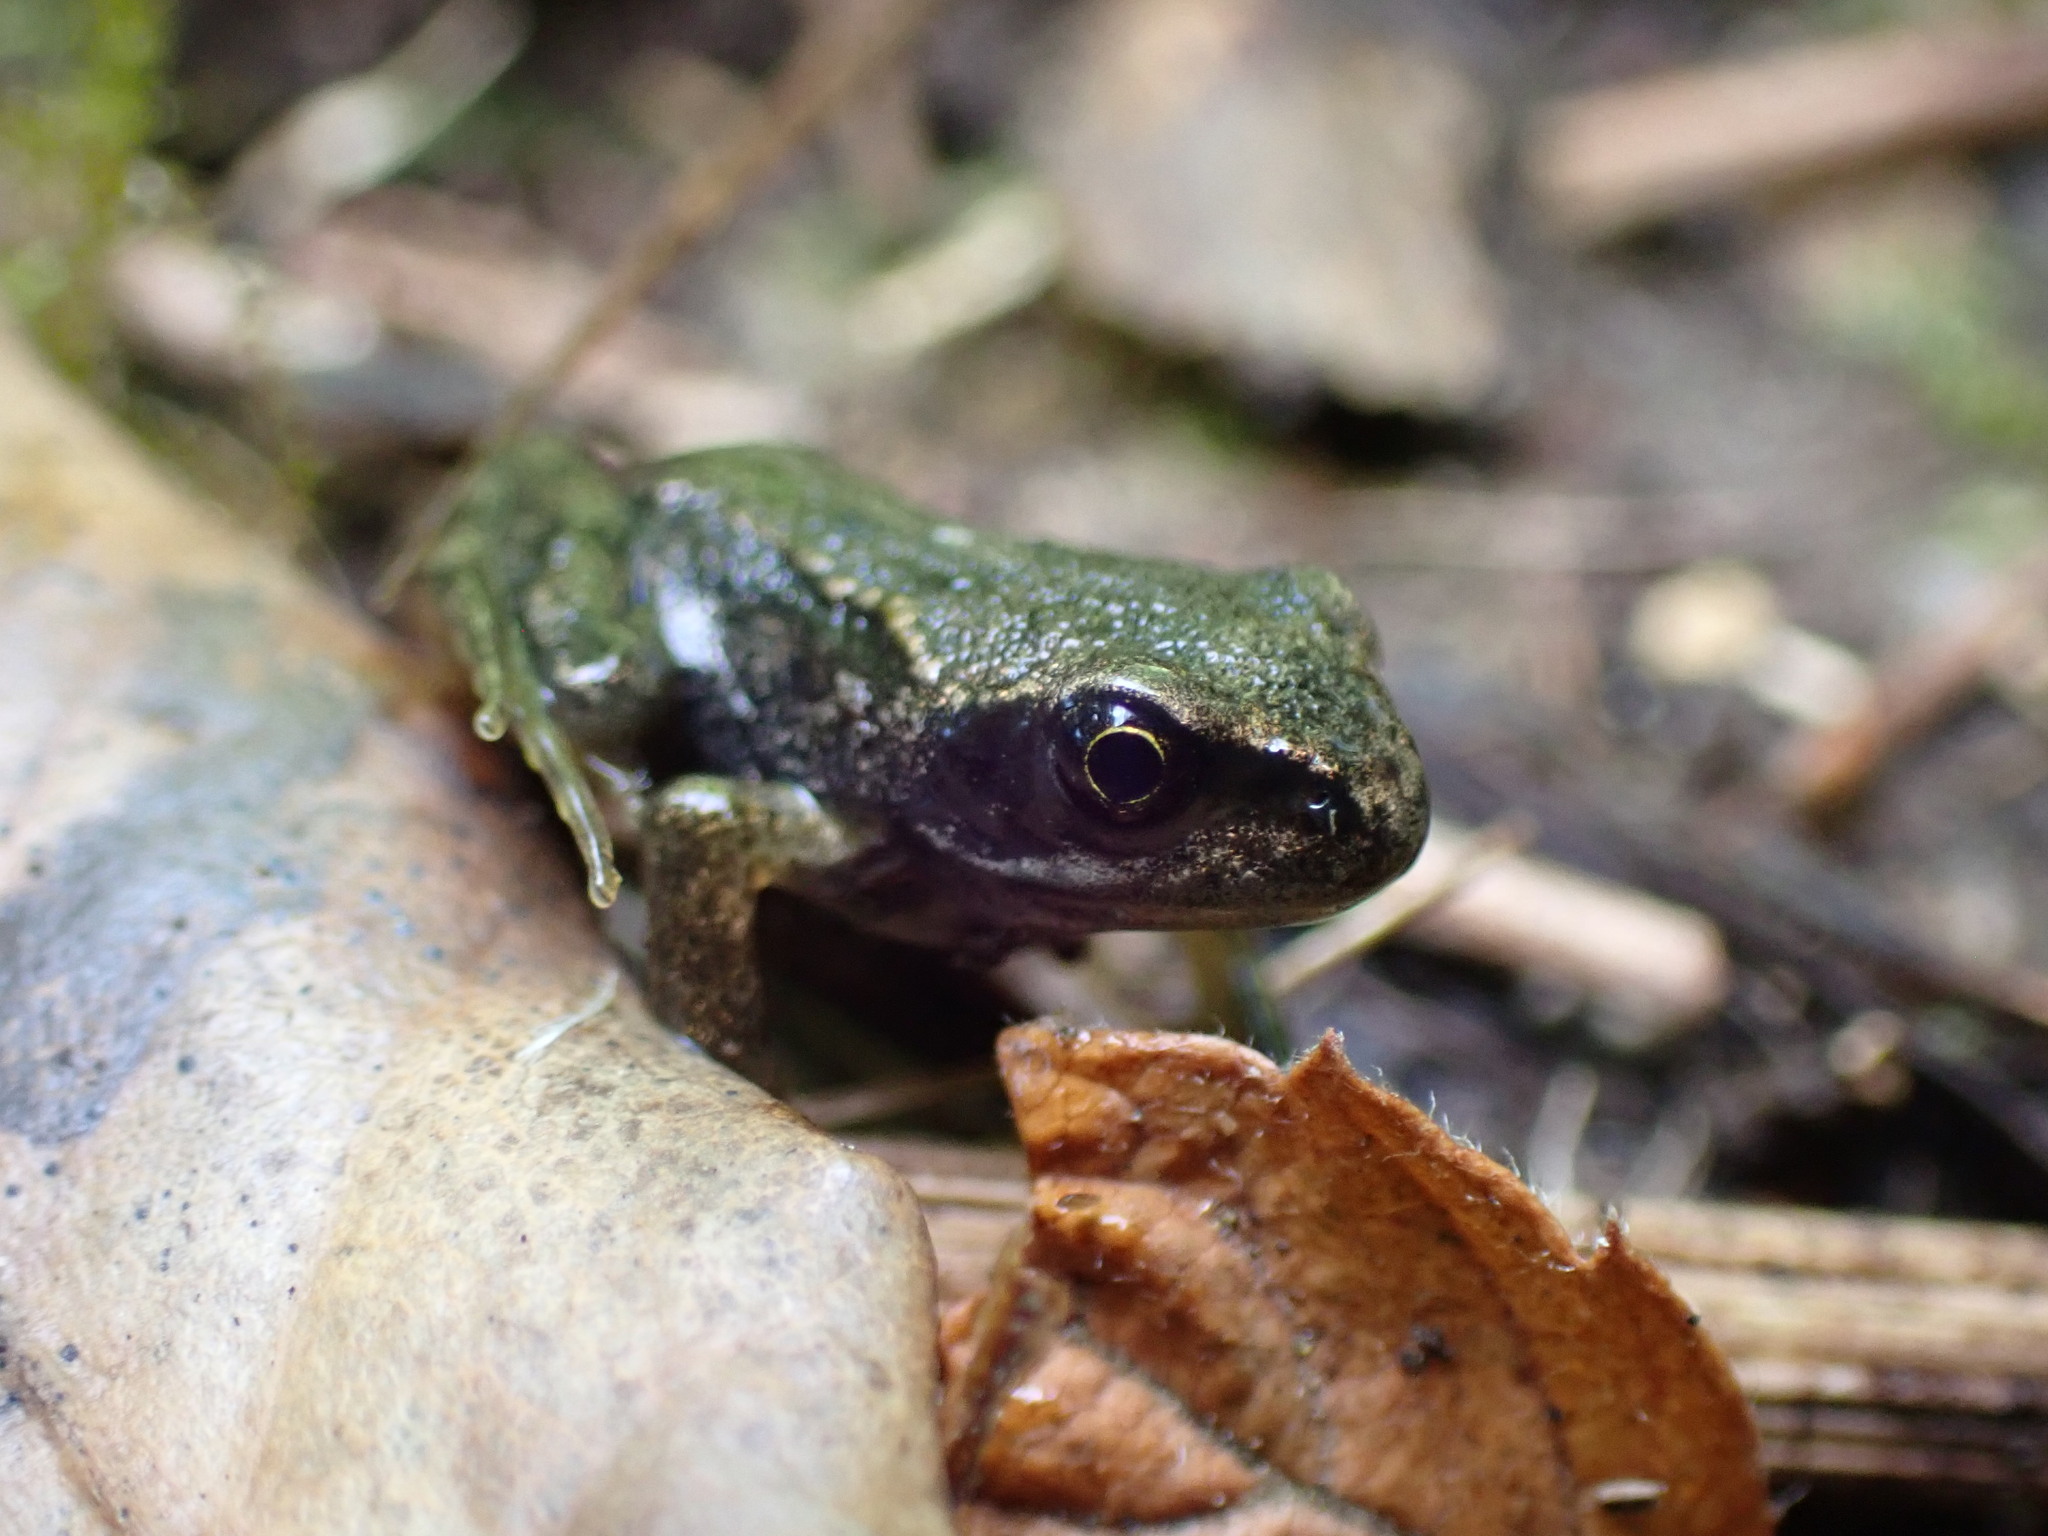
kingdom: Animalia
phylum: Chordata
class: Amphibia
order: Anura
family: Ranidae
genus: Rana
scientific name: Rana temporaria
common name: Common frog
